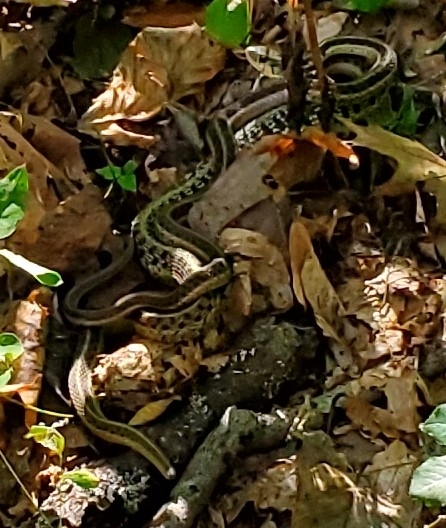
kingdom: Animalia
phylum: Chordata
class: Squamata
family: Colubridae
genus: Thamnophis
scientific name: Thamnophis sirtalis
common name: Common garter snake
